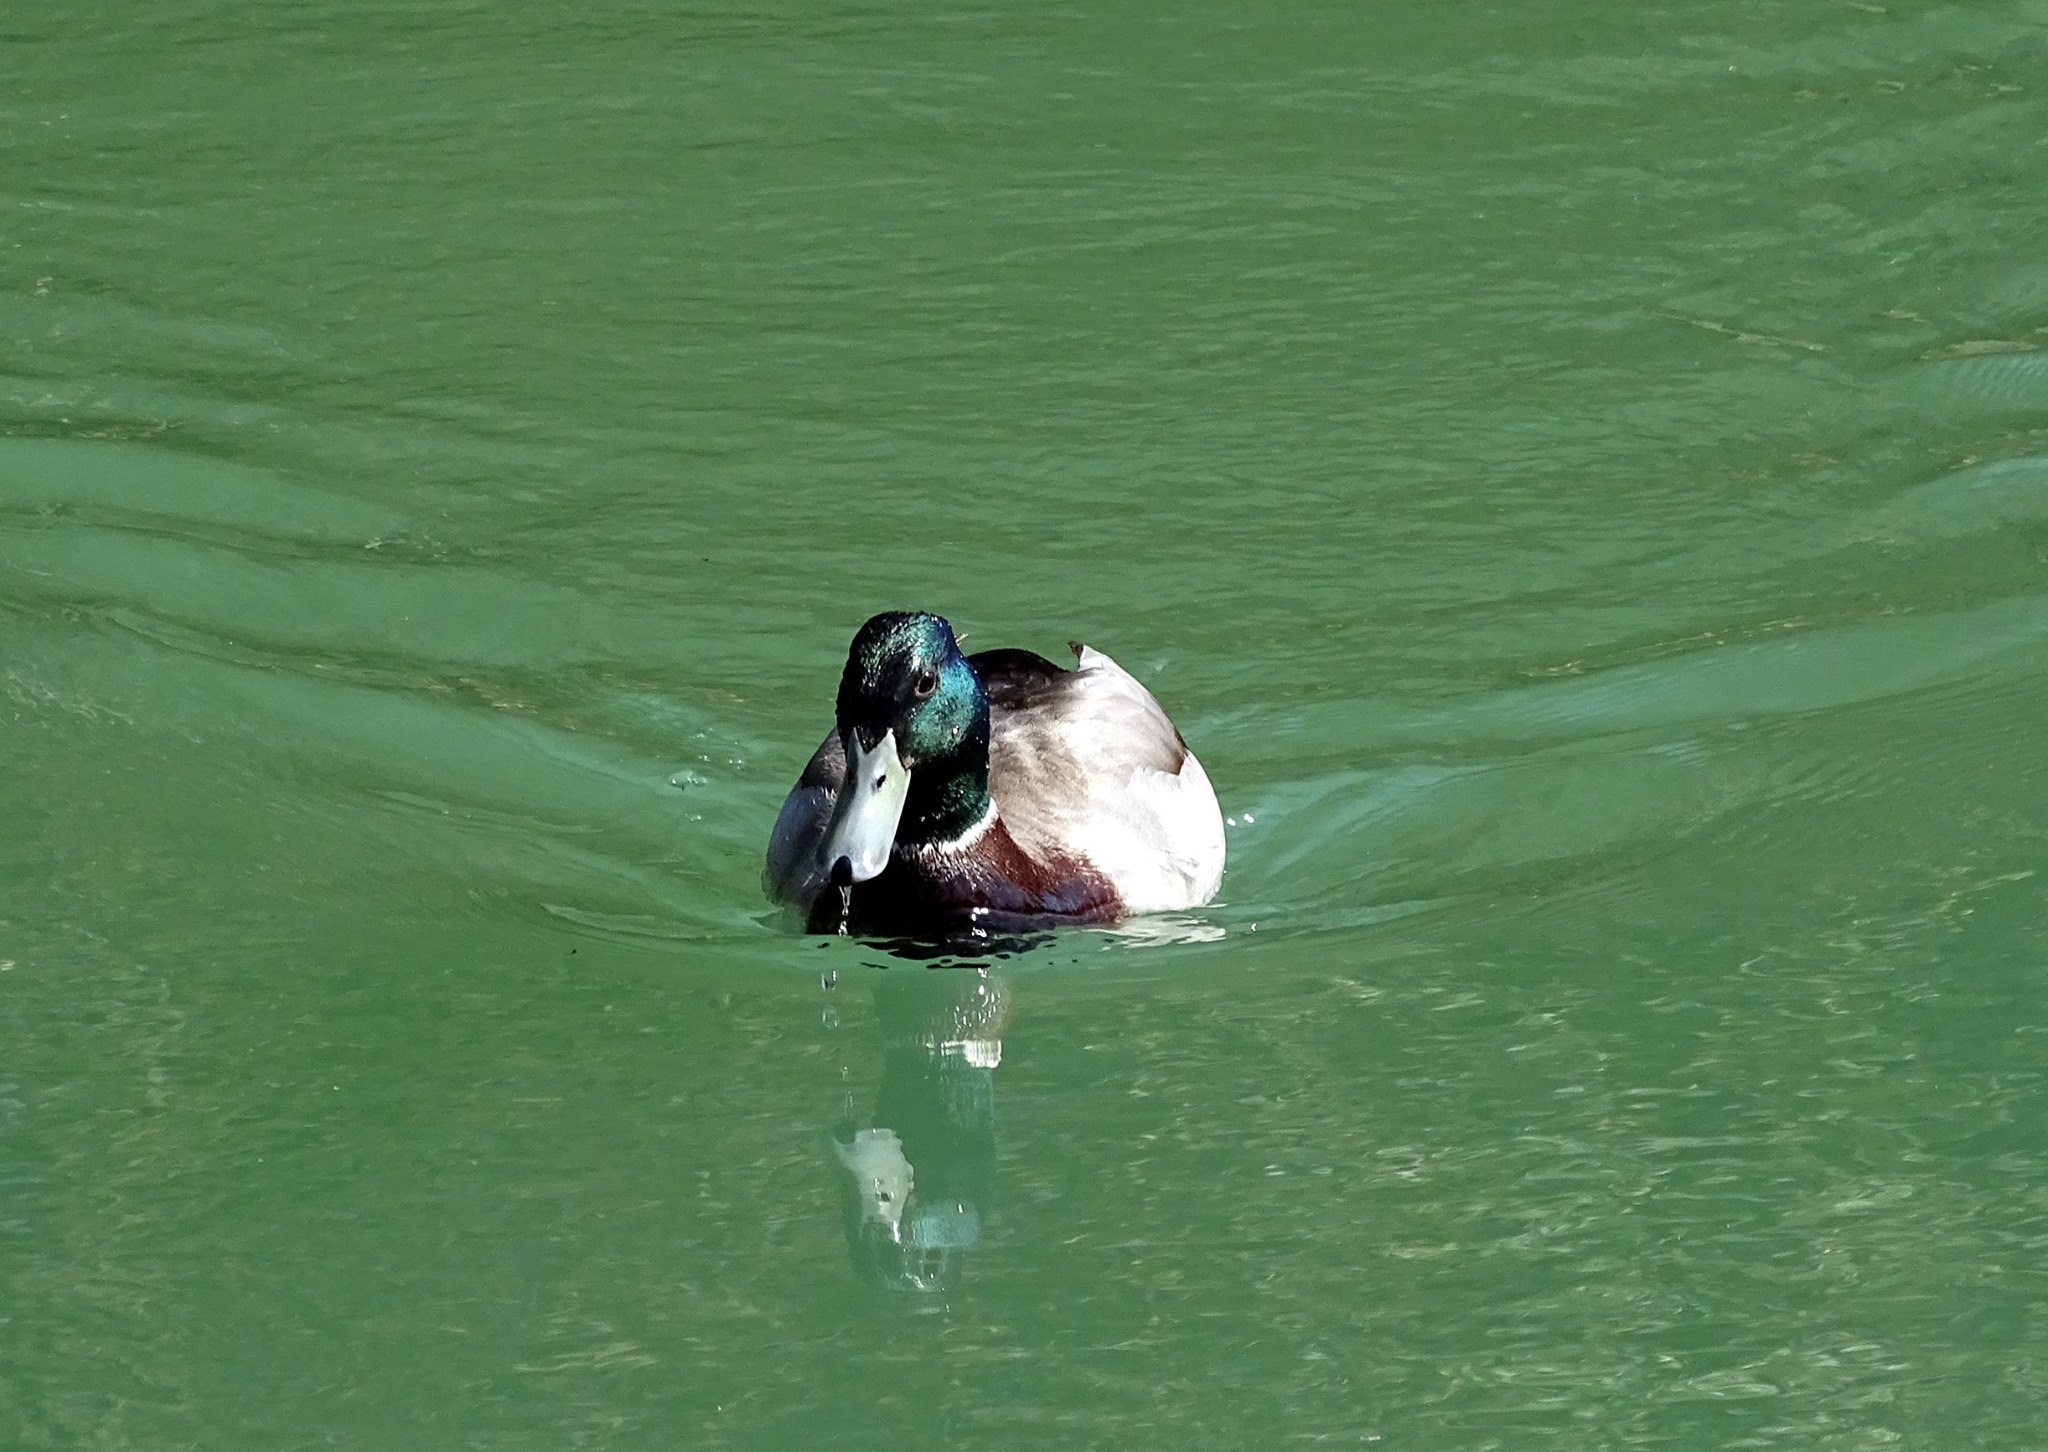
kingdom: Animalia
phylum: Chordata
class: Aves
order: Anseriformes
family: Anatidae
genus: Anas
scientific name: Anas platyrhynchos
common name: Mallard
